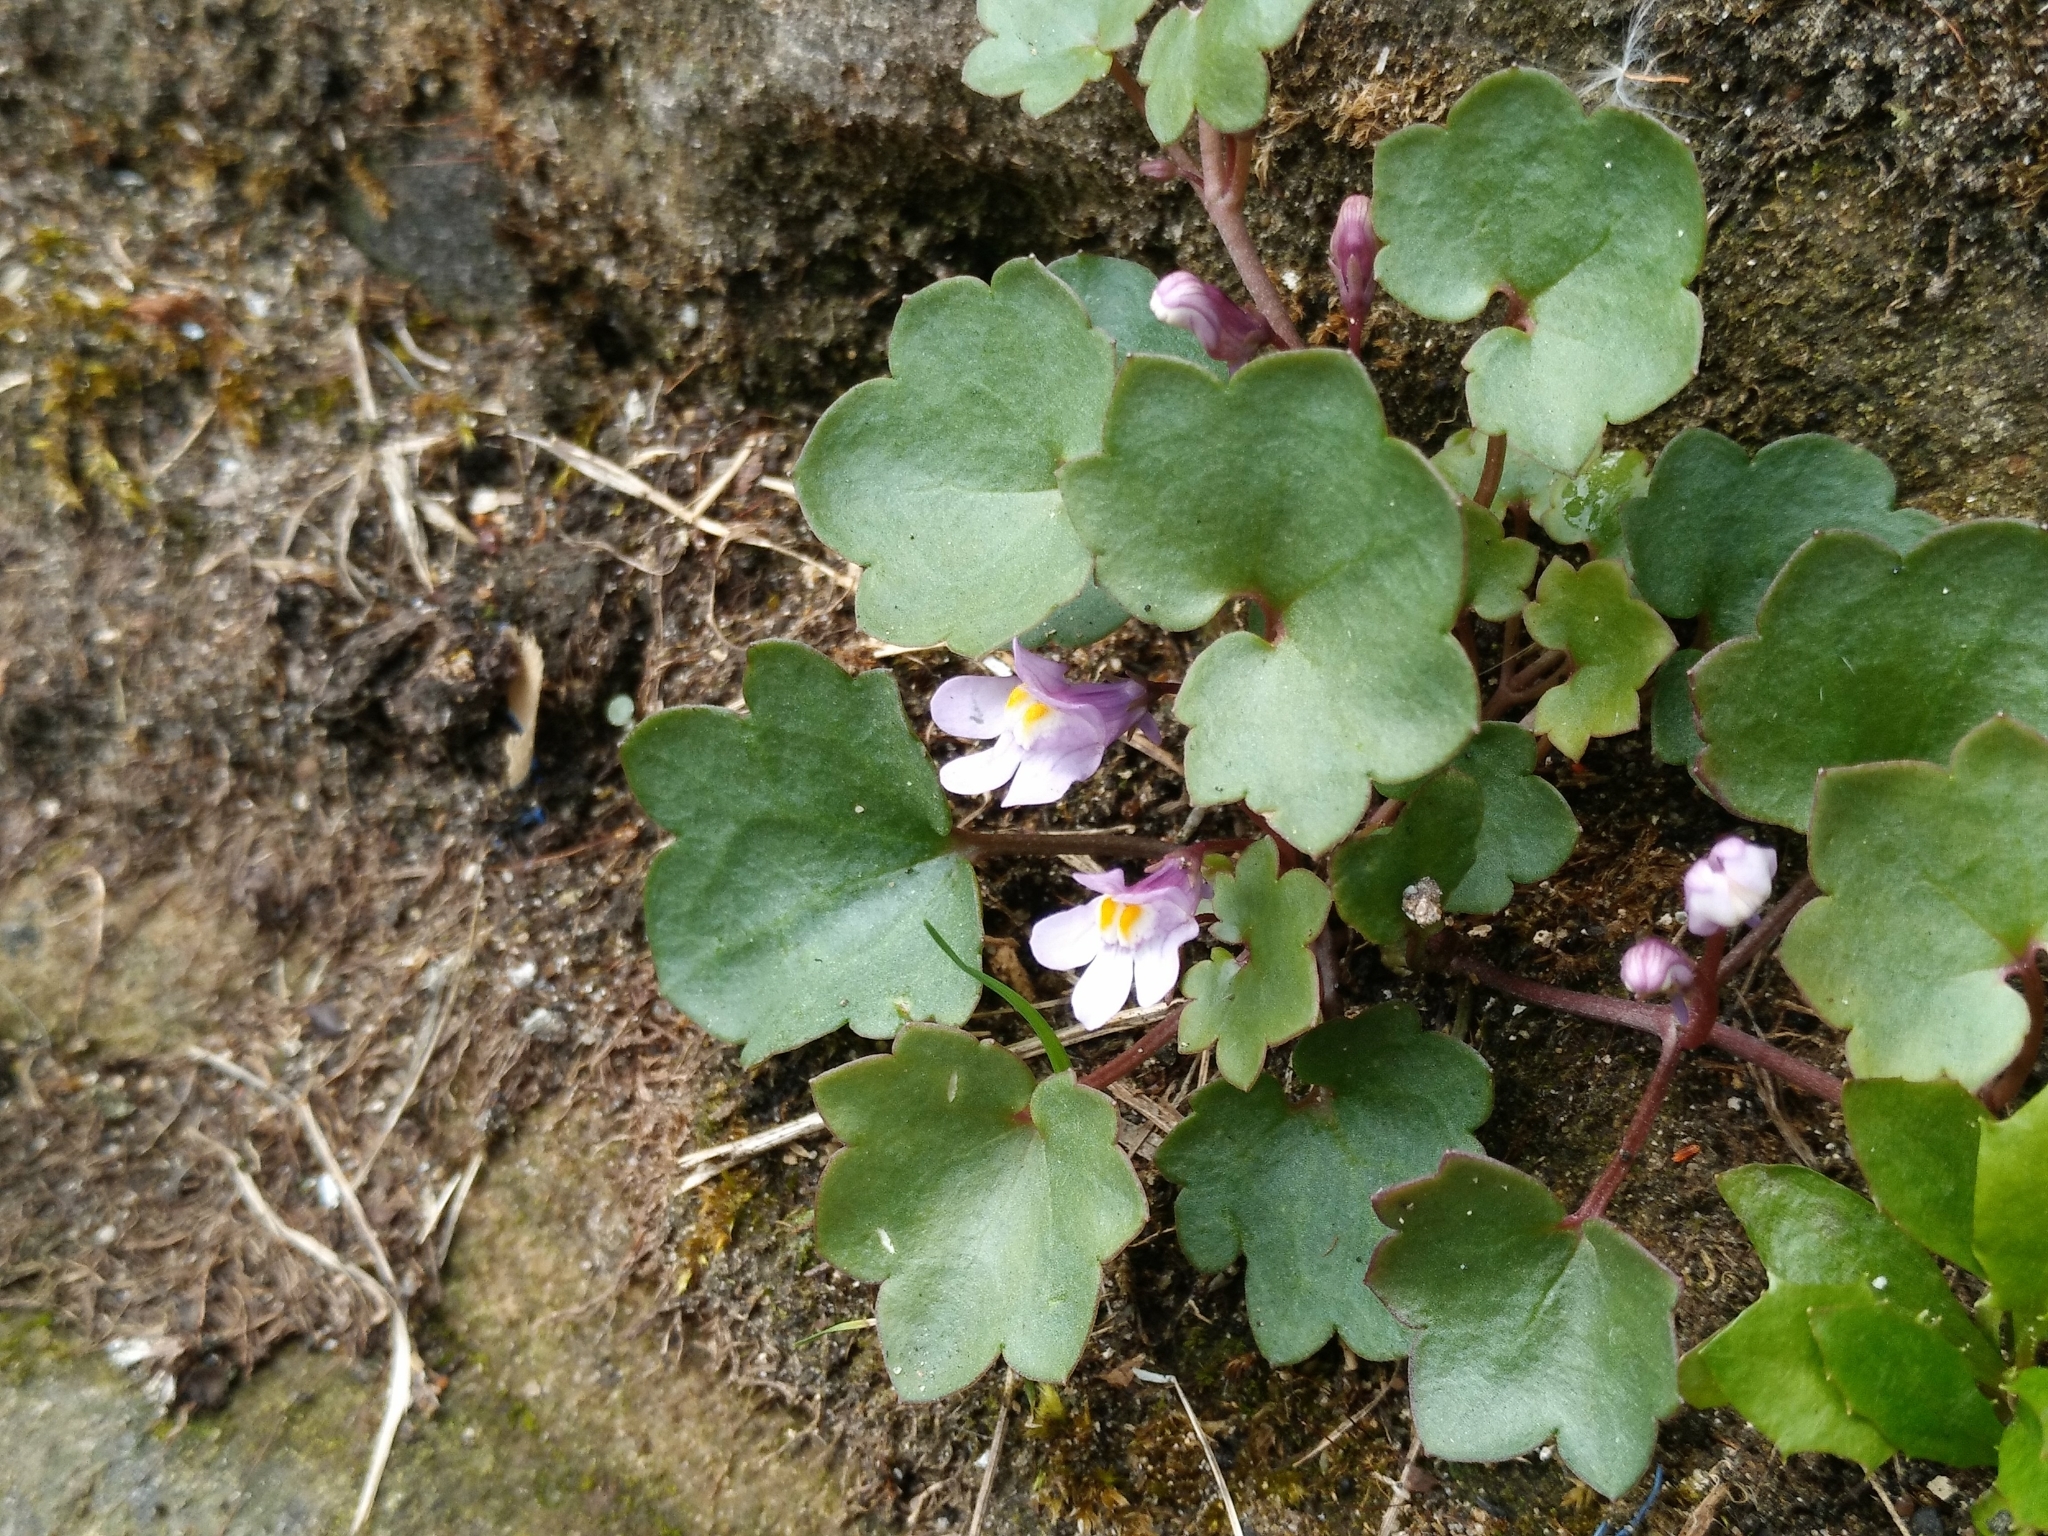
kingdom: Plantae
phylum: Tracheophyta
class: Magnoliopsida
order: Lamiales
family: Plantaginaceae
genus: Cymbalaria
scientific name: Cymbalaria muralis
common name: Ivy-leaved toadflax
